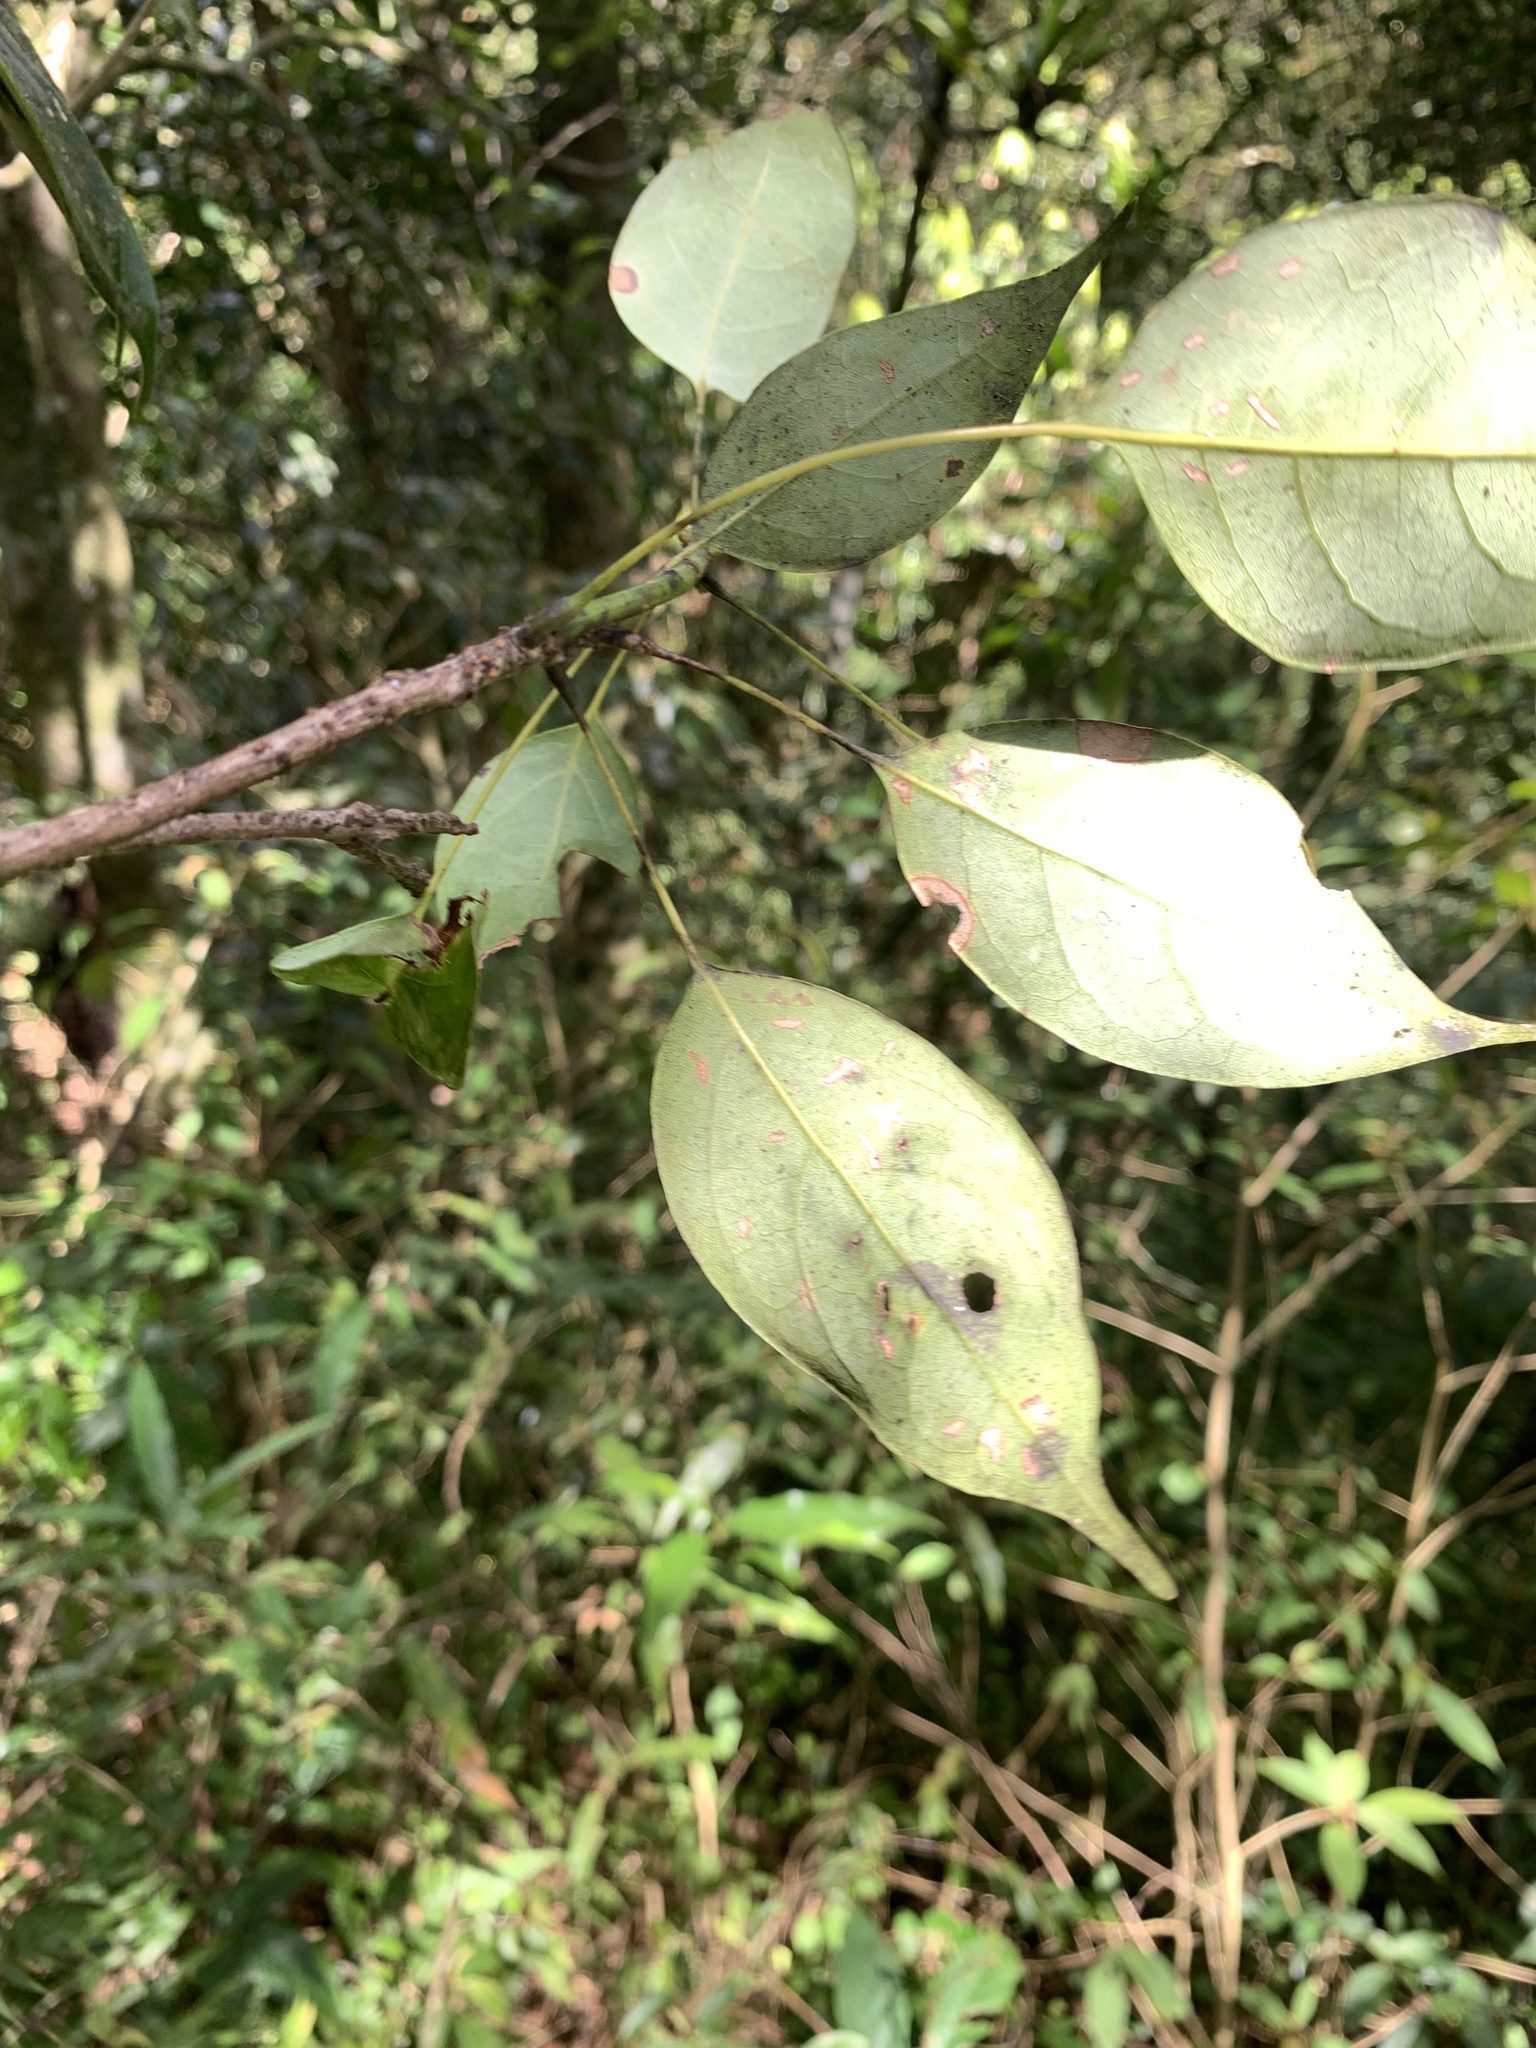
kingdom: Plantae
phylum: Tracheophyta
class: Magnoliopsida
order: Proteales
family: Sabiaceae
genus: Meliosma
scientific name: Meliosma squamulata
